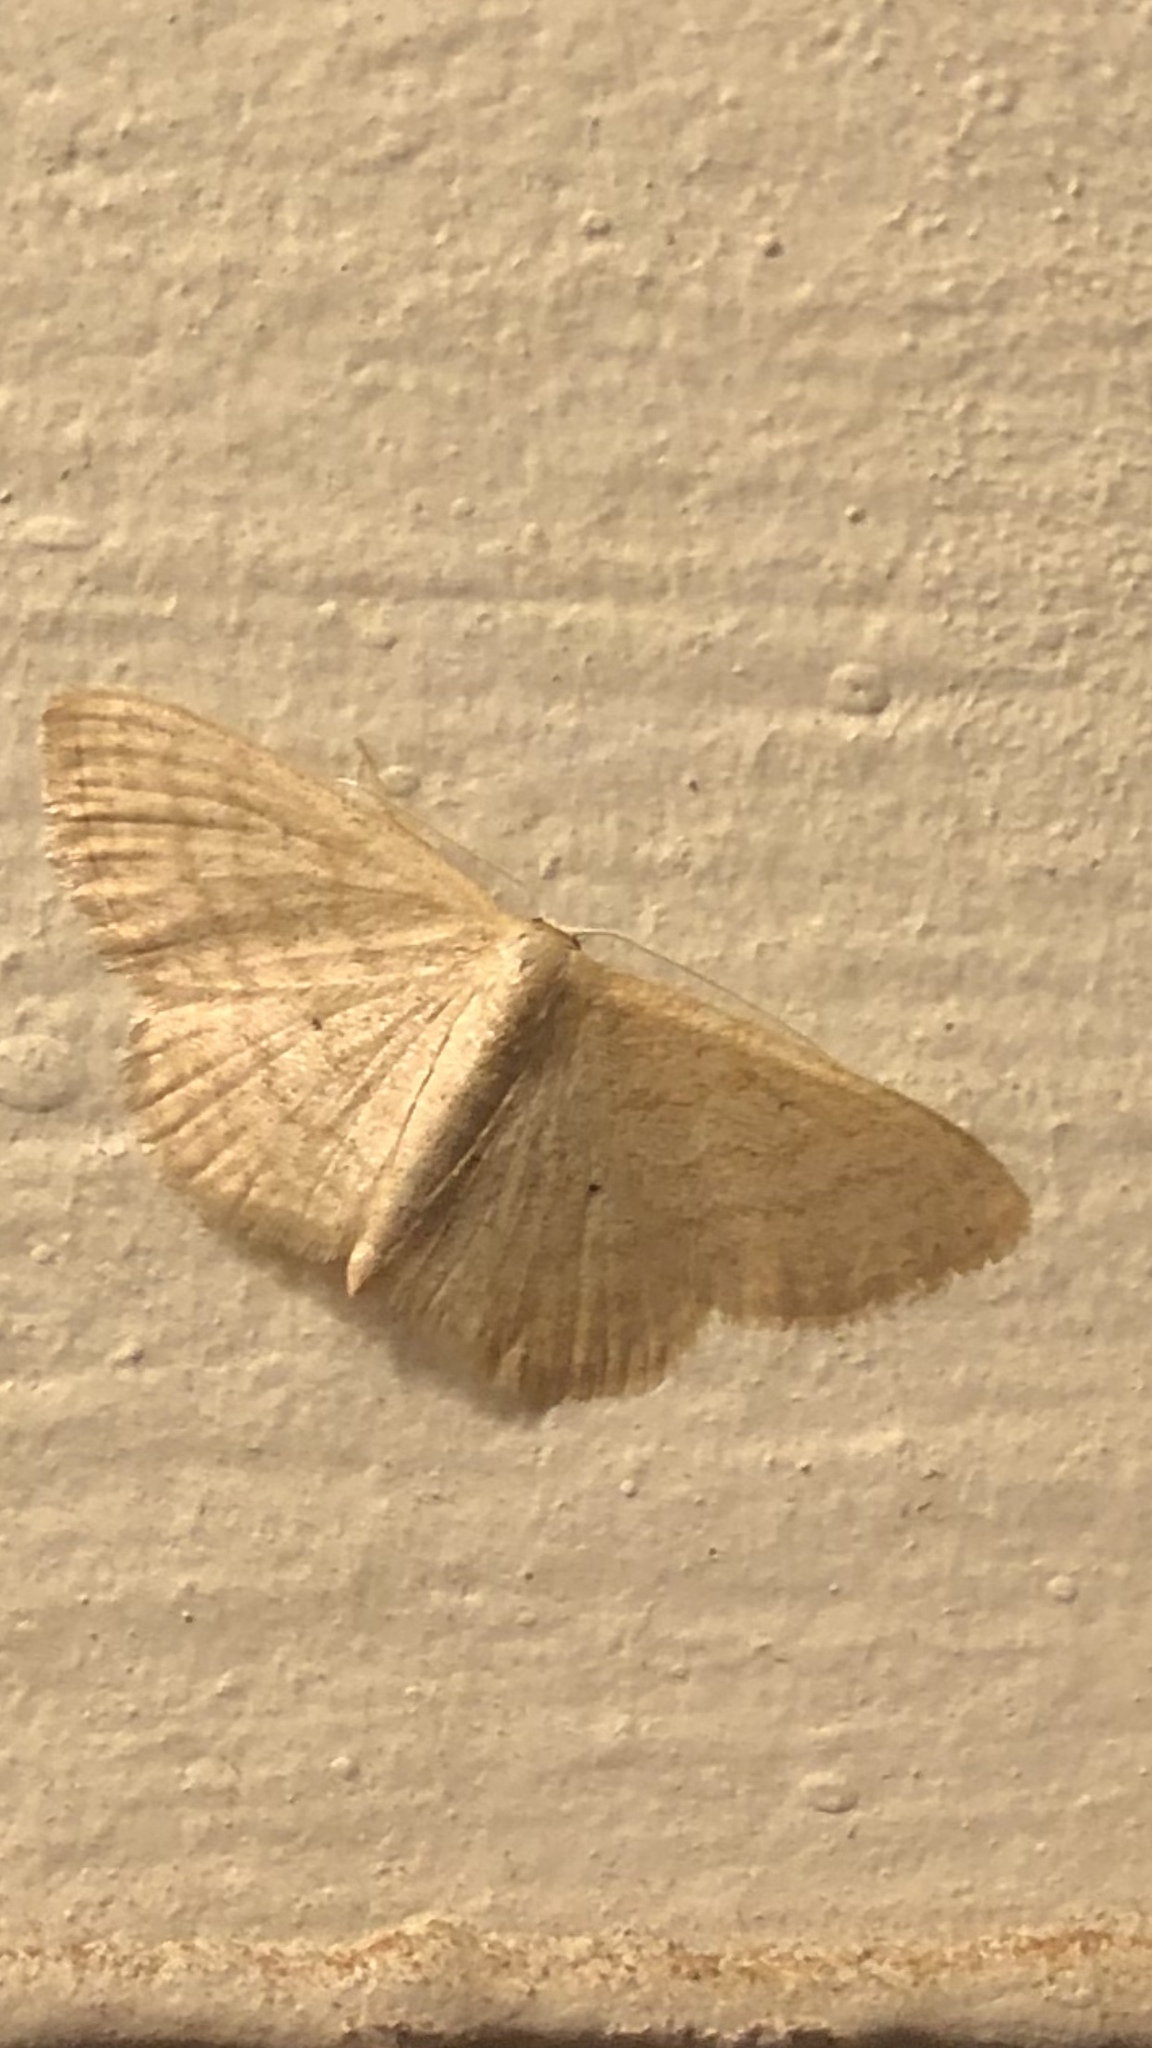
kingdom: Animalia
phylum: Arthropoda
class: Insecta
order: Lepidoptera
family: Geometridae
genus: Scopula
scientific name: Scopula inductata
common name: Soft-lined wave
